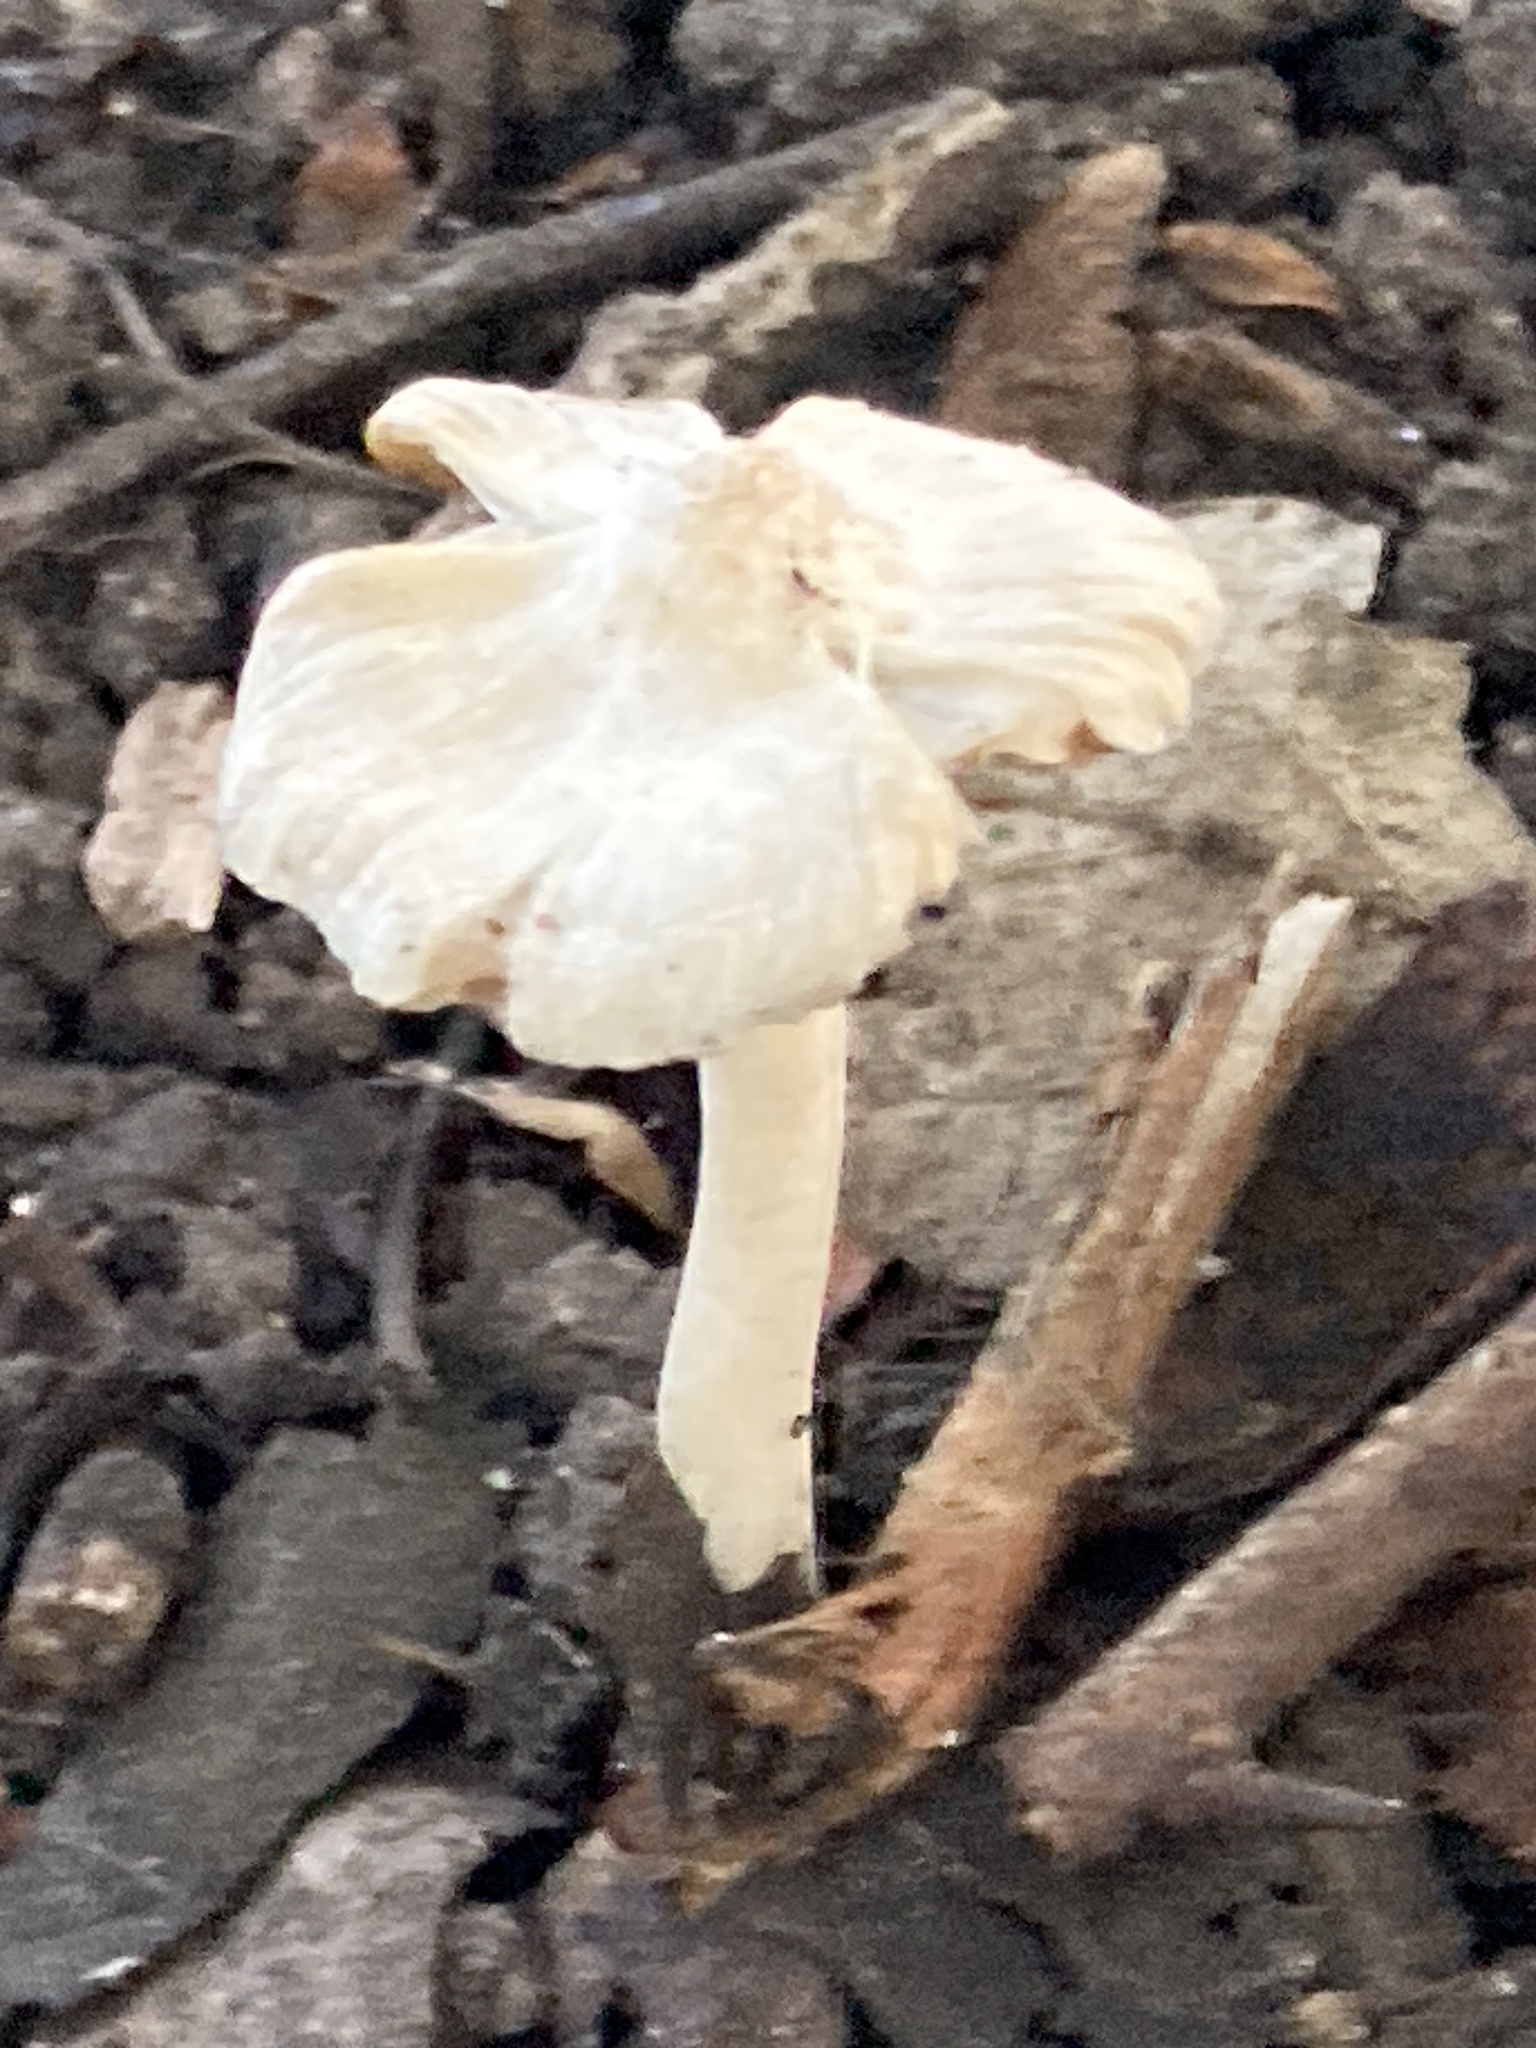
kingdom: Fungi
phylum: Basidiomycota
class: Agaricomycetes
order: Agaricales
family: Inocybaceae
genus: Inocybe
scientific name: Inocybe geophylla
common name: White fibrecap
